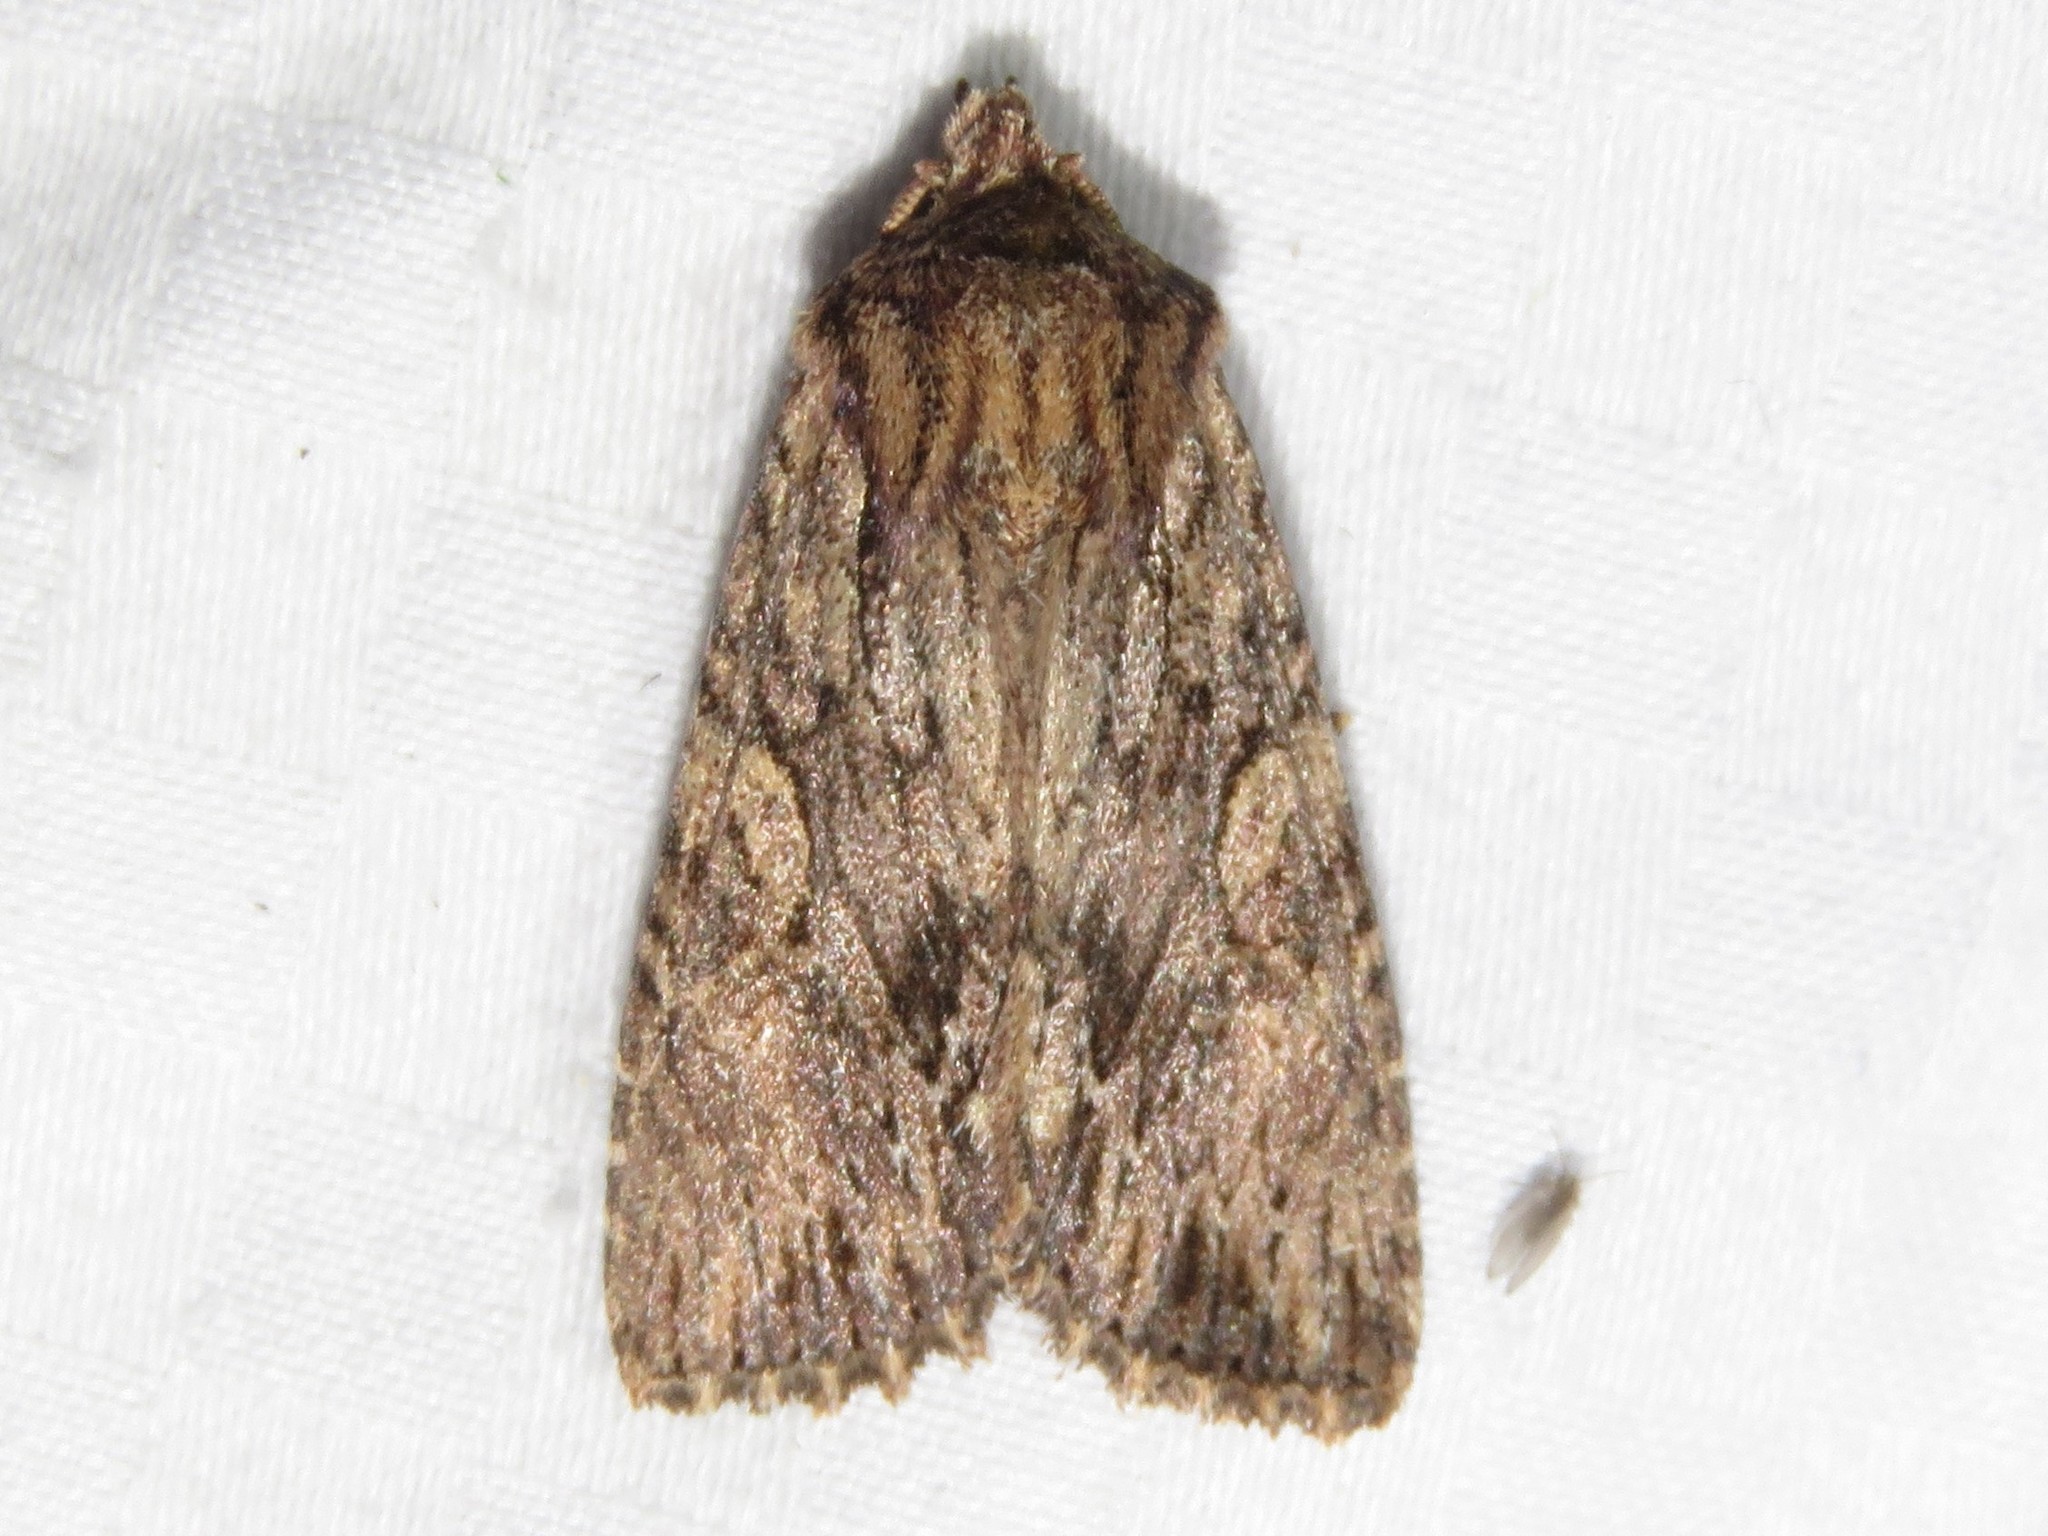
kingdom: Animalia
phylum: Arthropoda
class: Insecta
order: Lepidoptera
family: Noctuidae
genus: Achatia
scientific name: Achatia confusa
